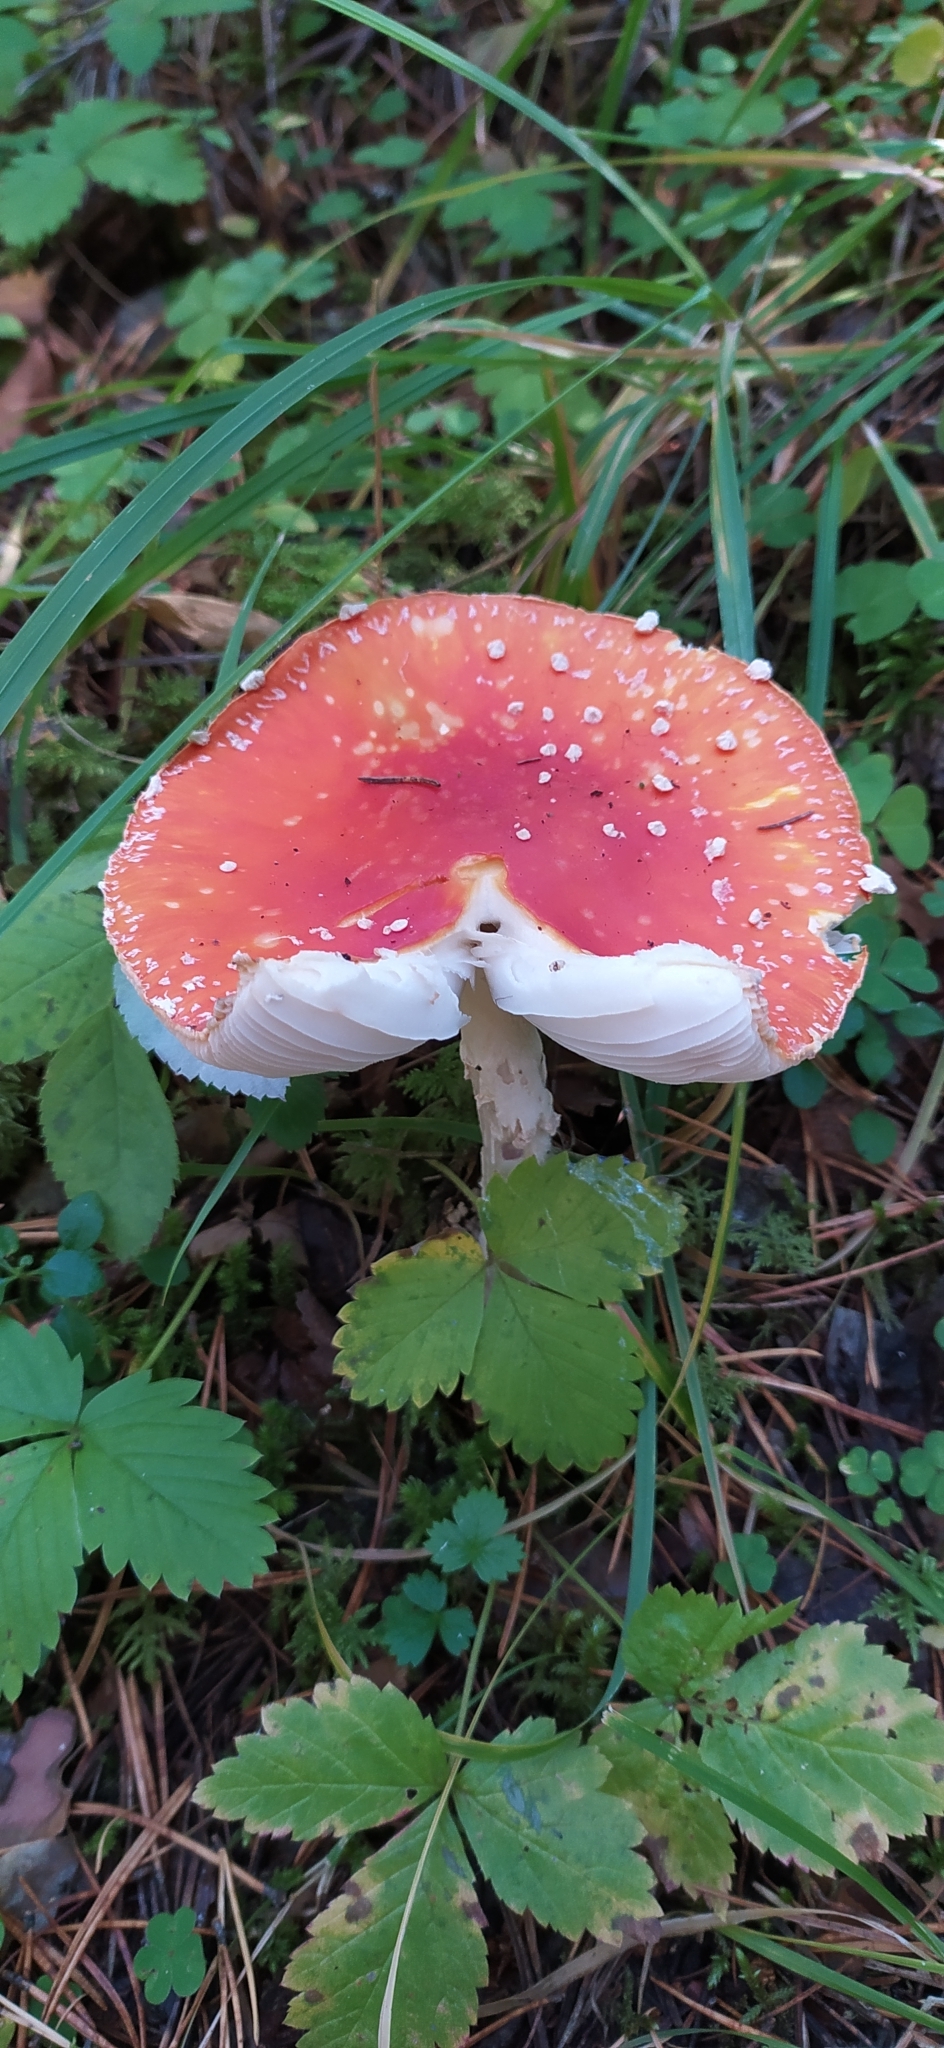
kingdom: Fungi
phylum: Basidiomycota
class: Agaricomycetes
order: Agaricales
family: Amanitaceae
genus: Amanita
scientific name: Amanita muscaria
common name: Fly agaric
